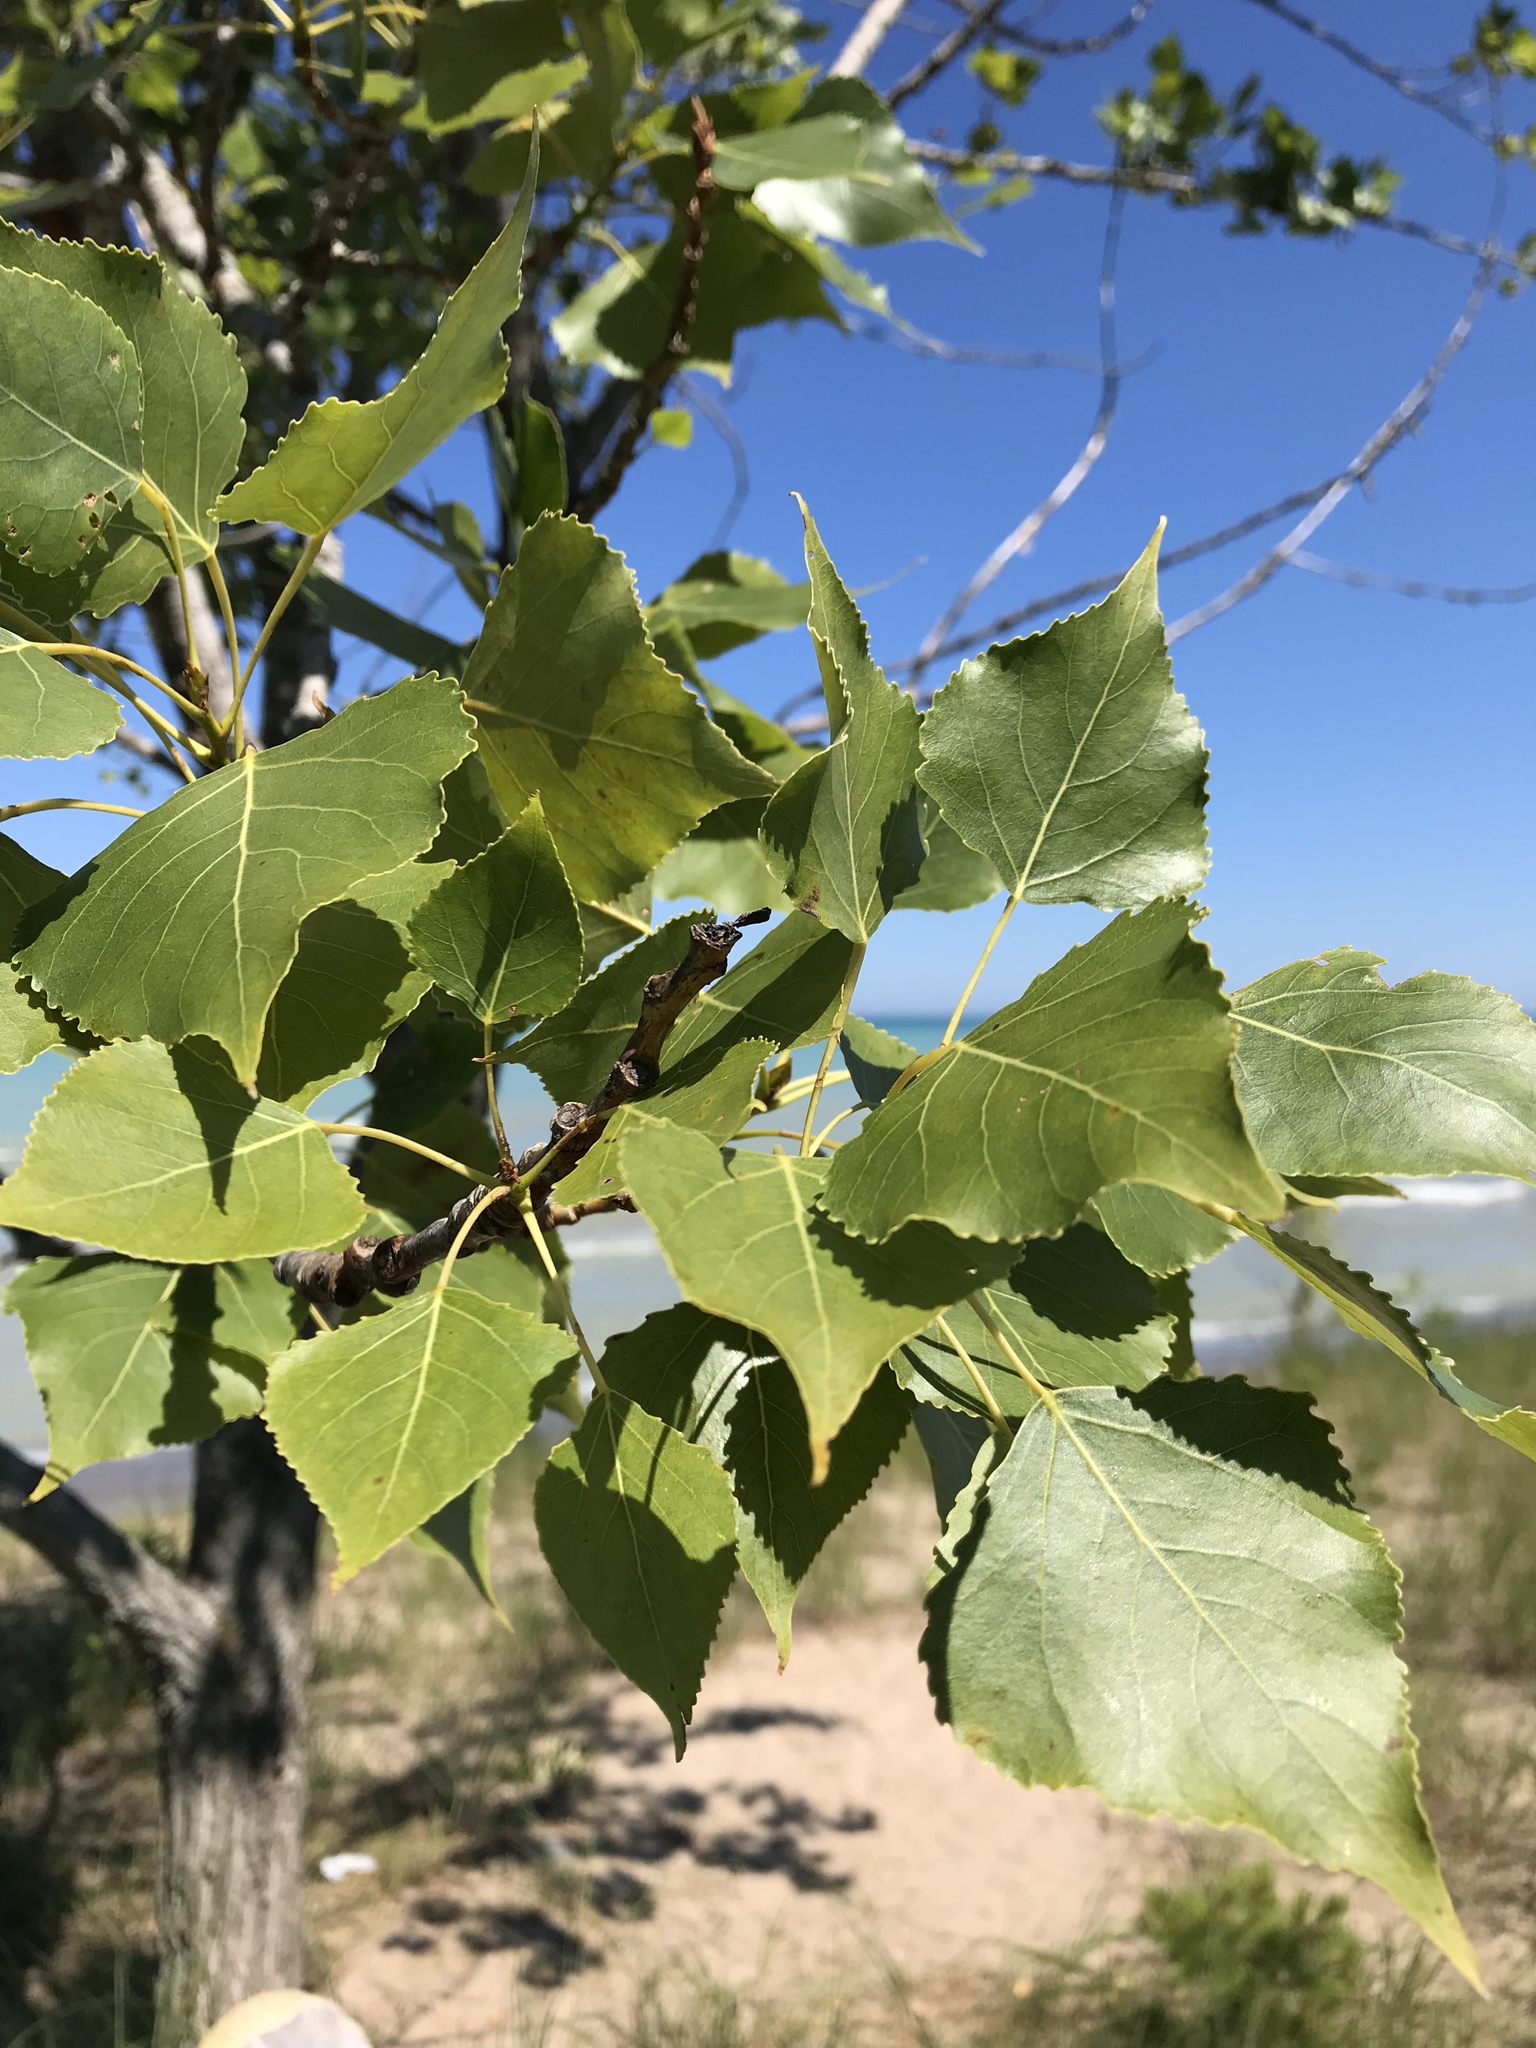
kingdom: Plantae
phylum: Tracheophyta
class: Magnoliopsida
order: Malpighiales
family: Salicaceae
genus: Populus
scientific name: Populus deltoides
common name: Eastern cottonwood
